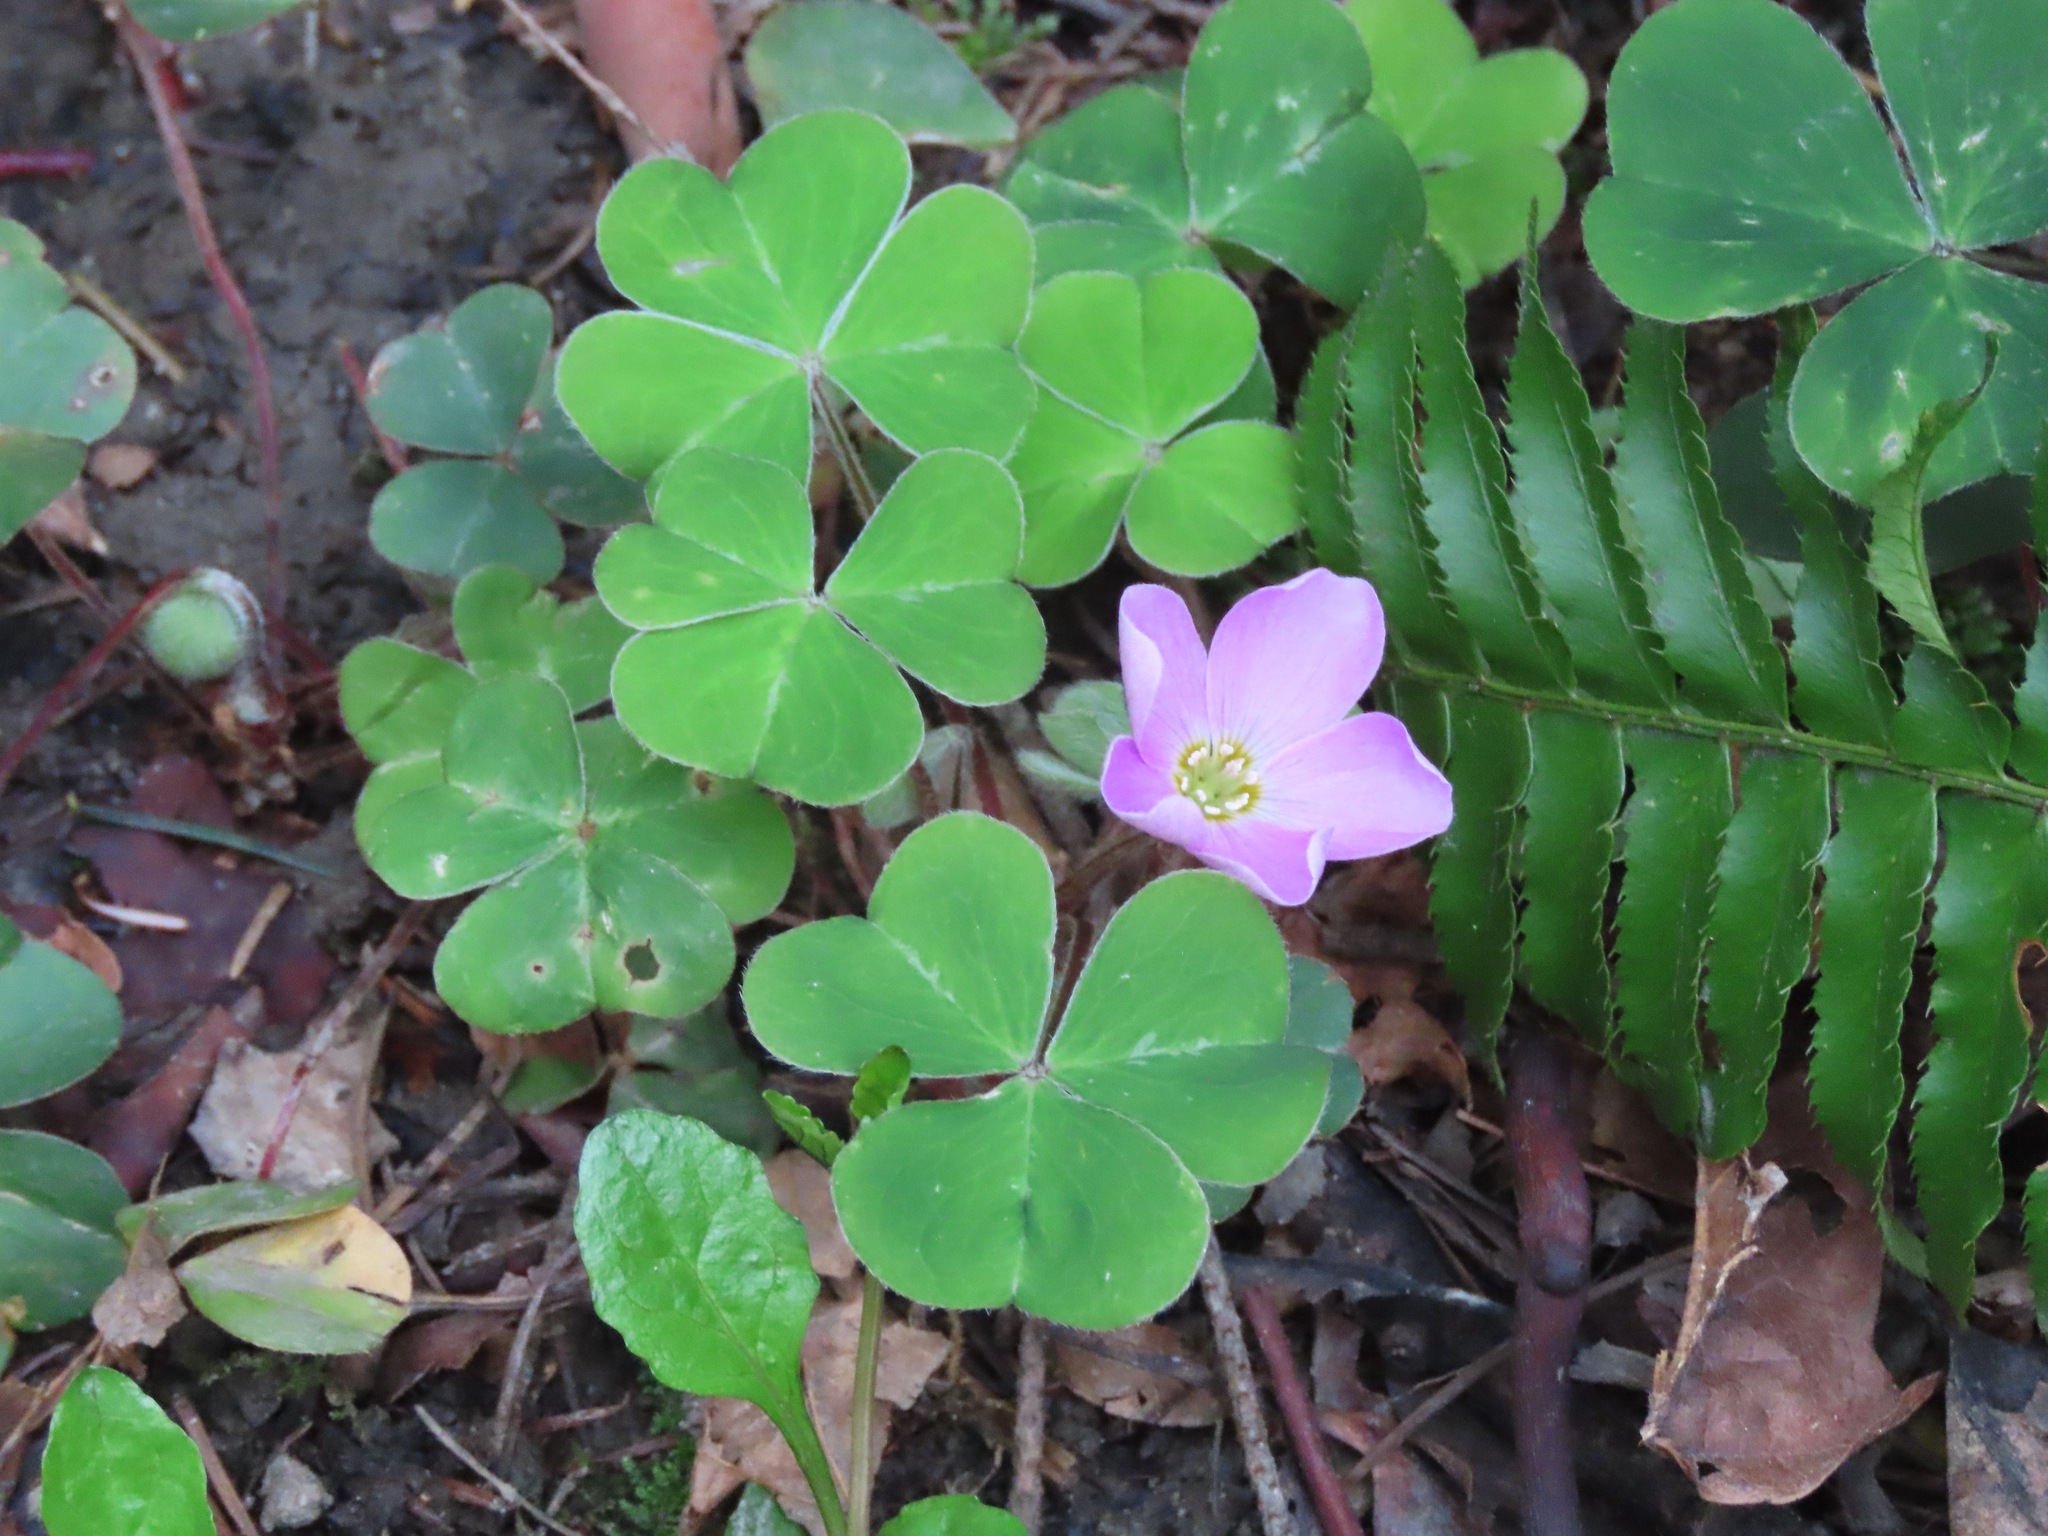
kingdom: Plantae
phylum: Tracheophyta
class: Magnoliopsida
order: Oxalidales
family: Oxalidaceae
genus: Oxalis
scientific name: Oxalis oregana
